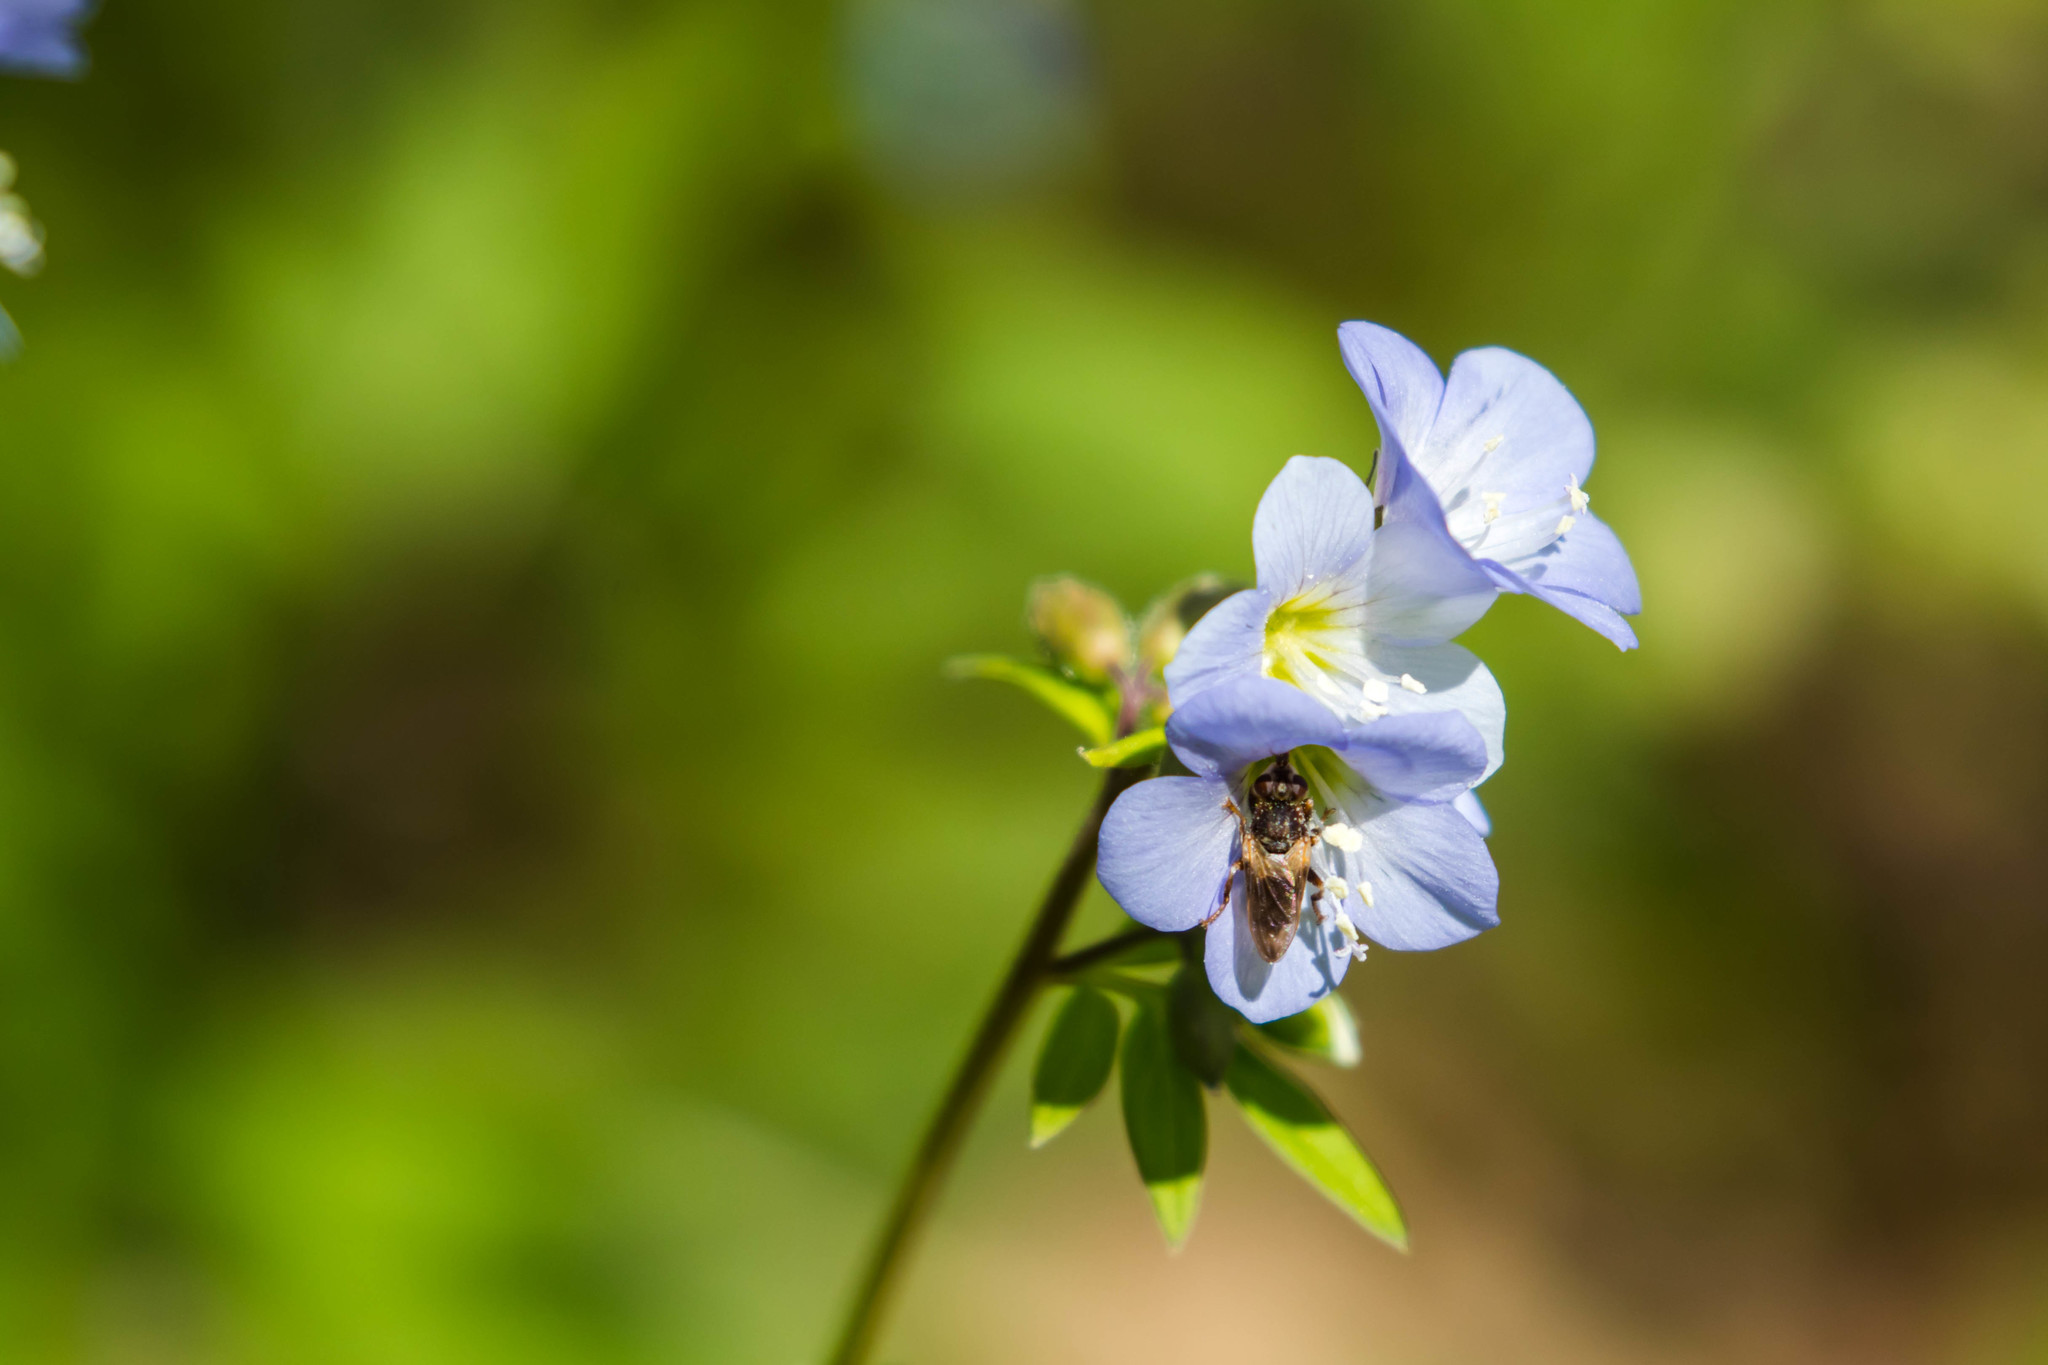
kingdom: Animalia
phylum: Arthropoda
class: Insecta
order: Diptera
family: Conopidae
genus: Myopa
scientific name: Myopa
